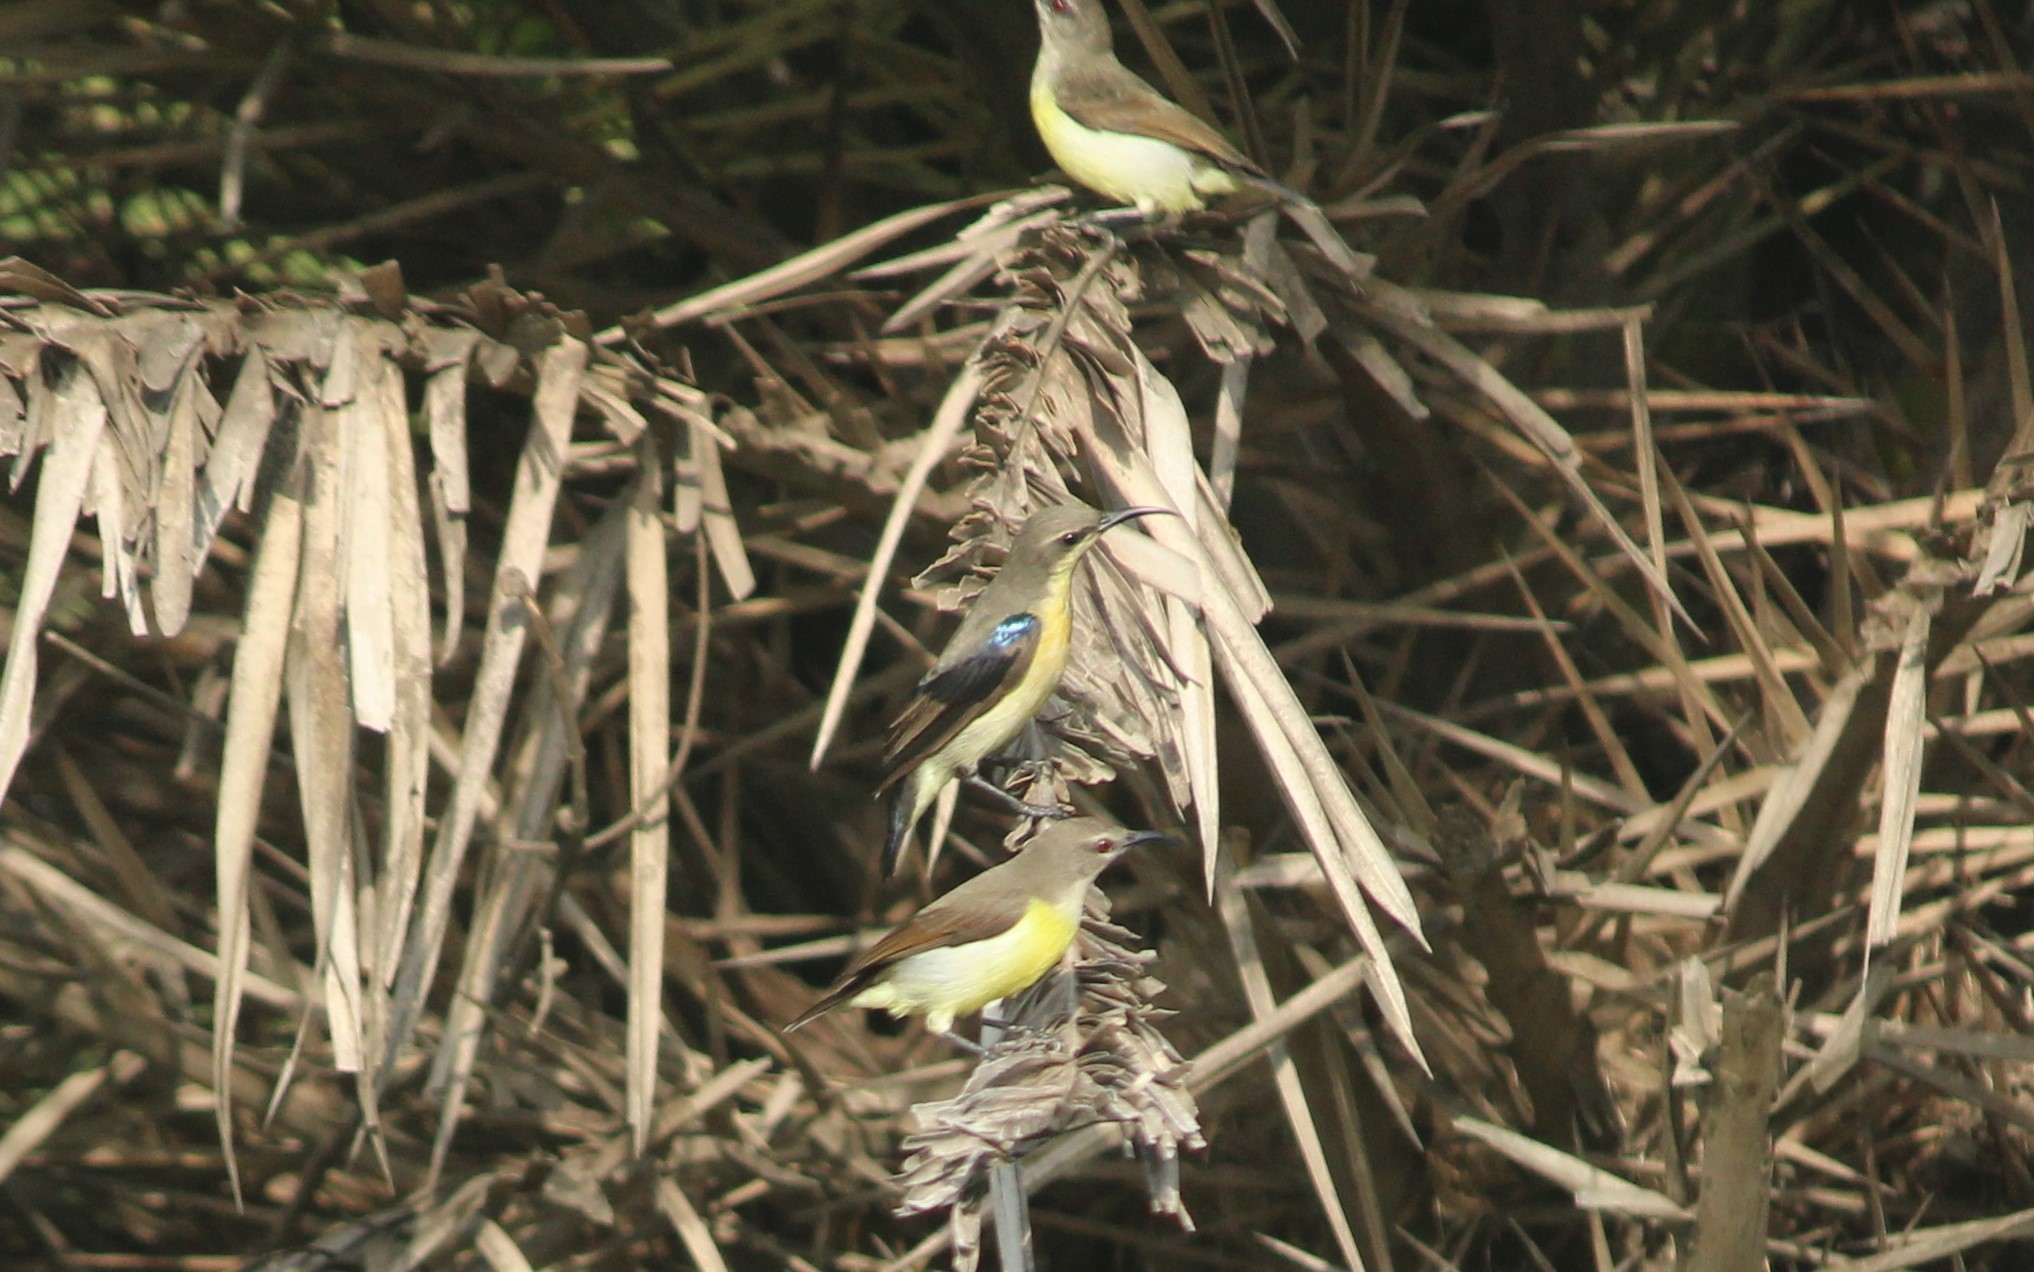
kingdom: Animalia
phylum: Chordata
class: Aves
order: Passeriformes
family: Nectariniidae
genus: Leptocoma
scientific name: Leptocoma zeylonica
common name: Purple-rumped sunbird
